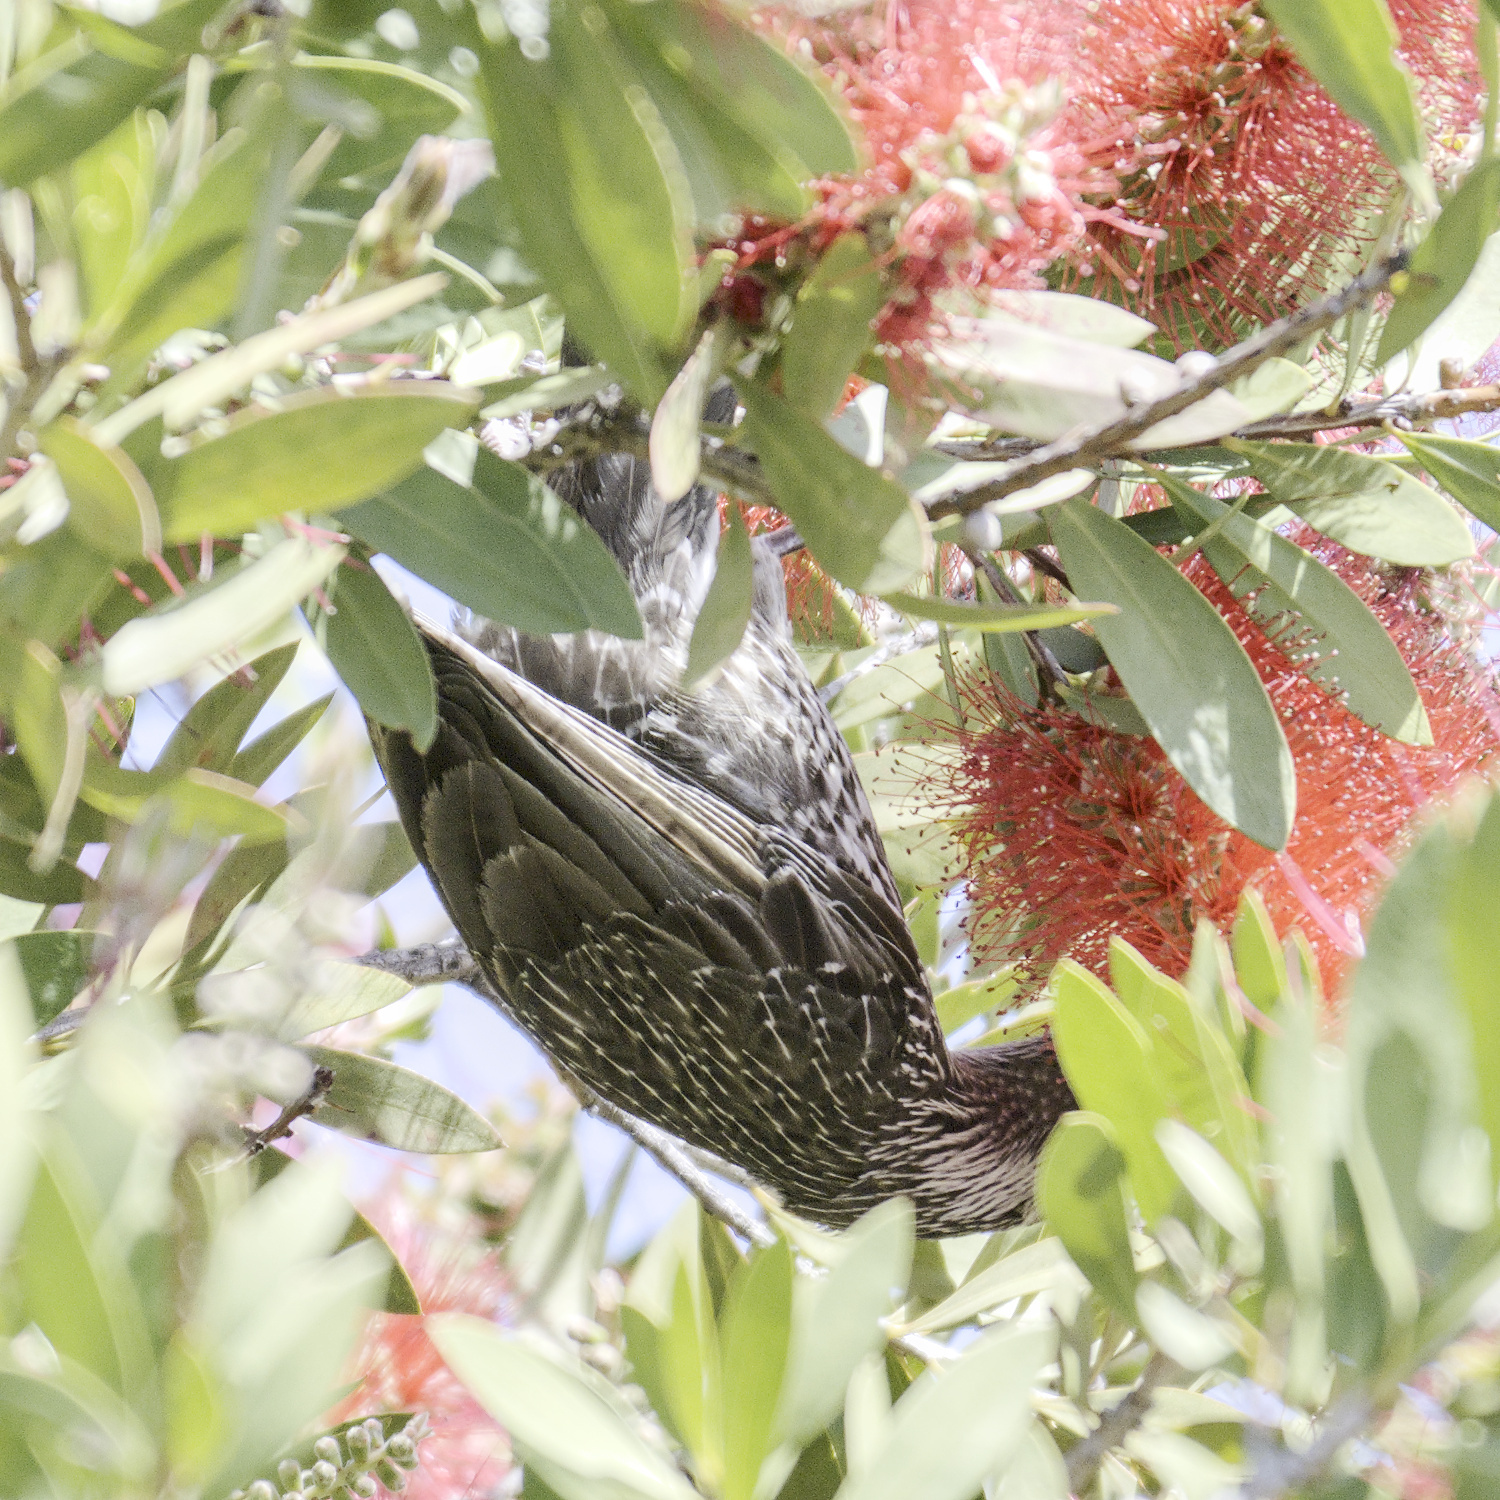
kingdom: Animalia
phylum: Chordata
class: Aves
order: Passeriformes
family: Meliphagidae
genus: Anthochaera
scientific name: Anthochaera carunculata
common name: Red wattlebird
